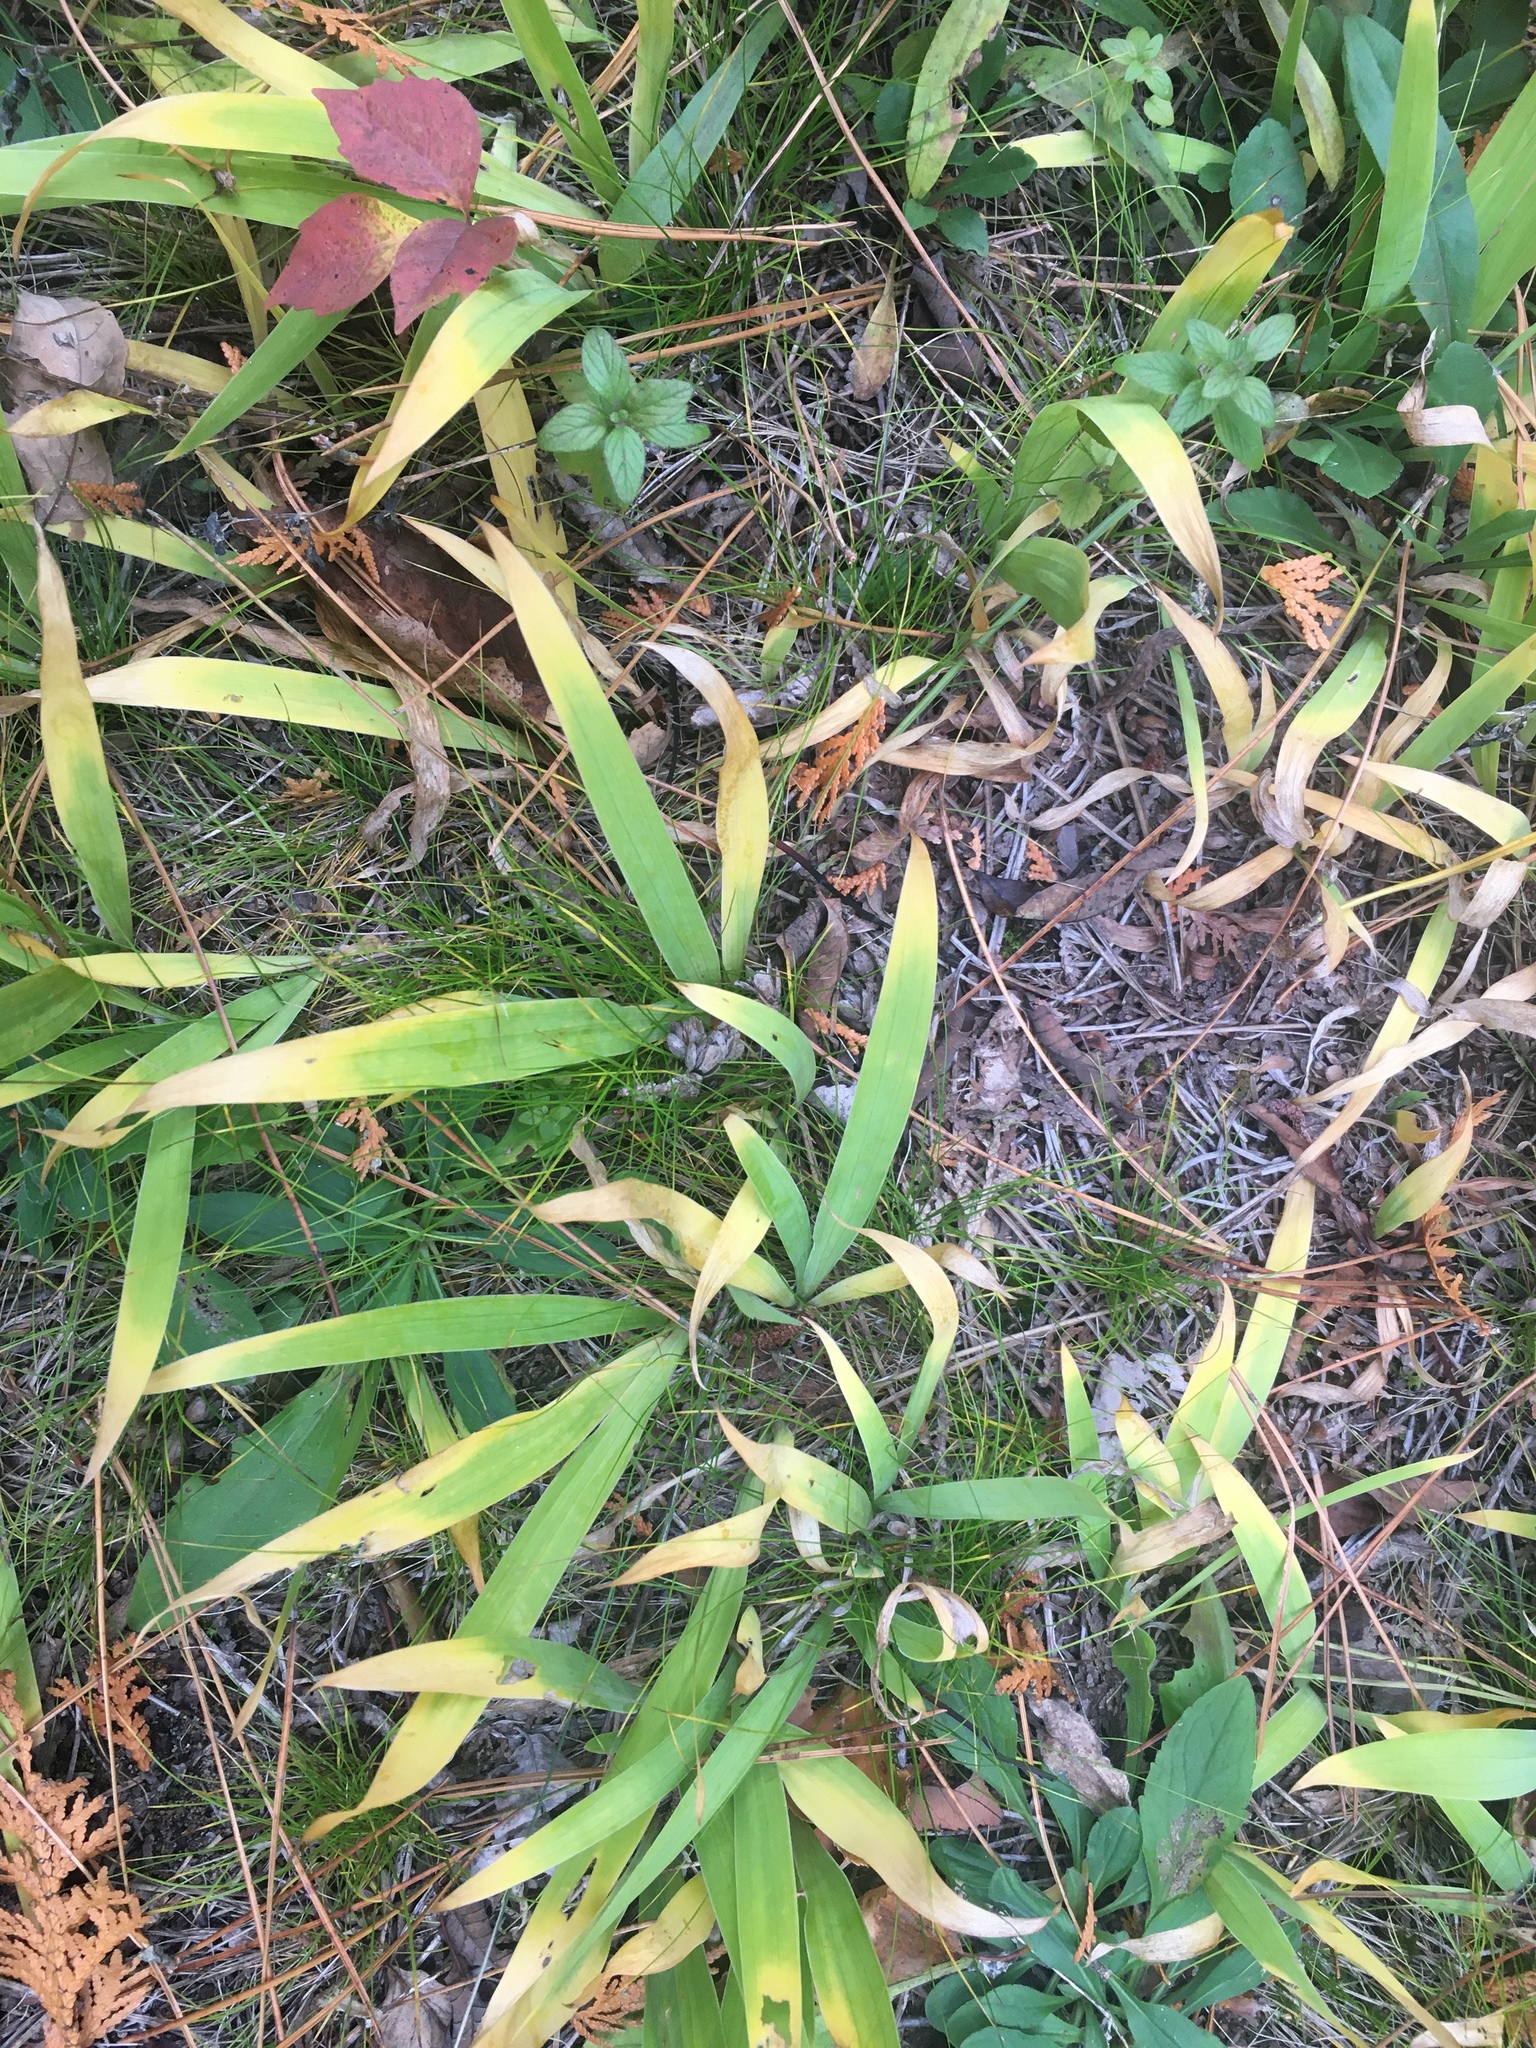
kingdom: Plantae
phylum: Tracheophyta
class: Liliopsida
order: Asparagales
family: Iridaceae
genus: Iris
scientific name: Iris lacustris
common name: Dwarf lake iris
